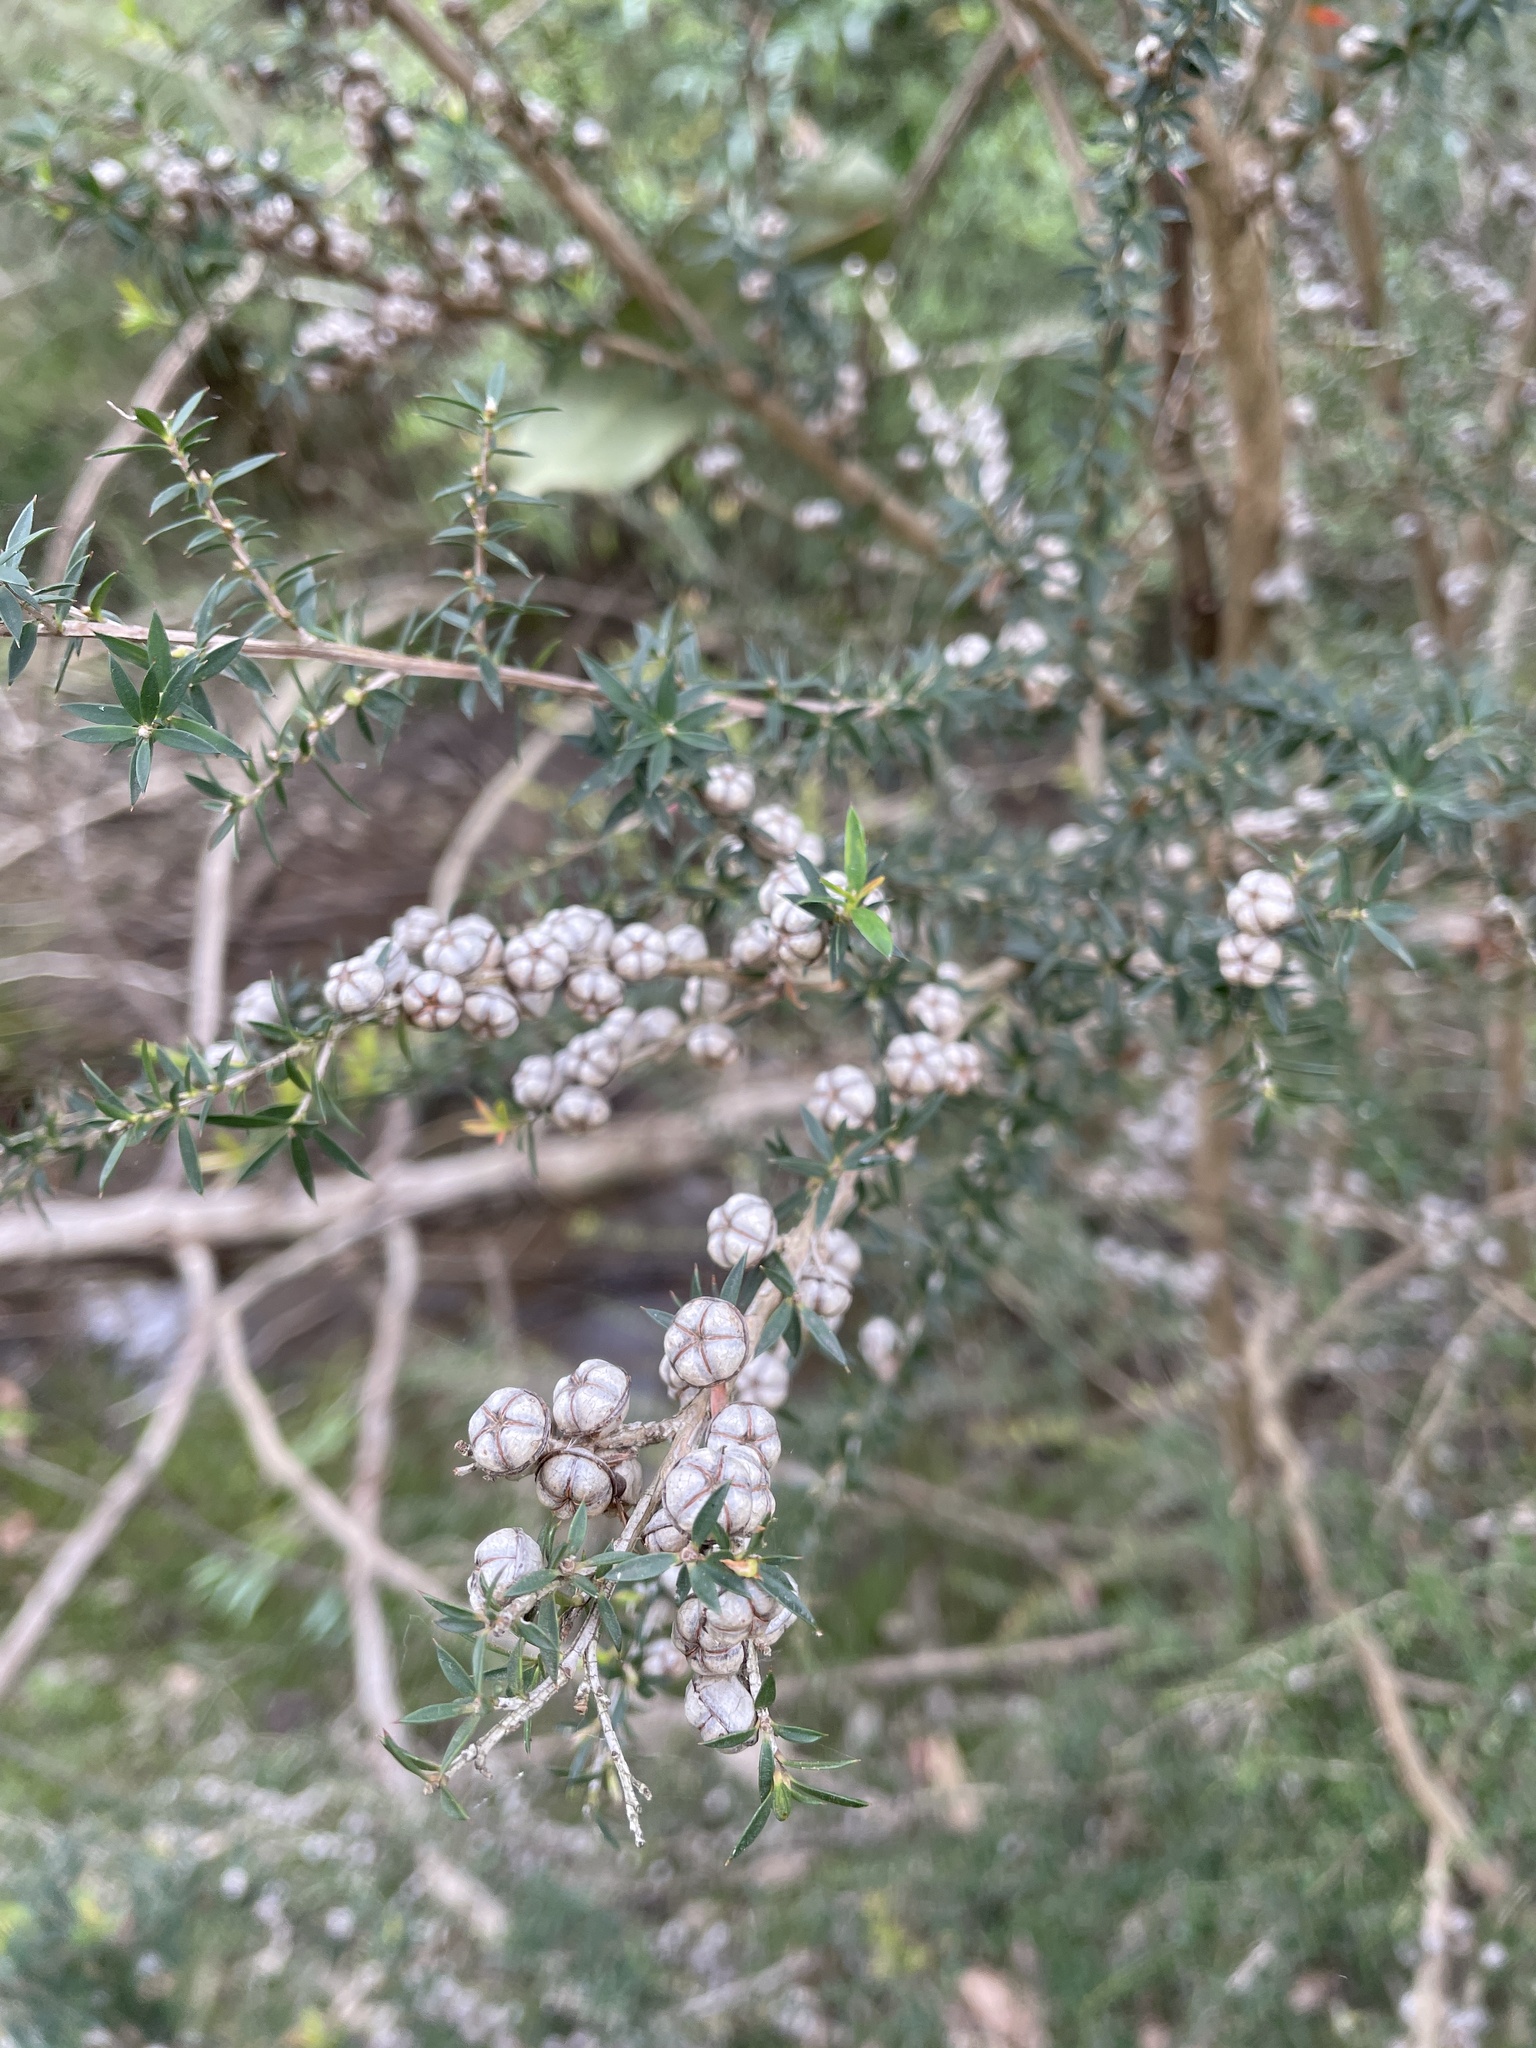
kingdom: Plantae
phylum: Tracheophyta
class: Magnoliopsida
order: Myrtales
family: Myrtaceae
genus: Leptospermum
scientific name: Leptospermum continentale
